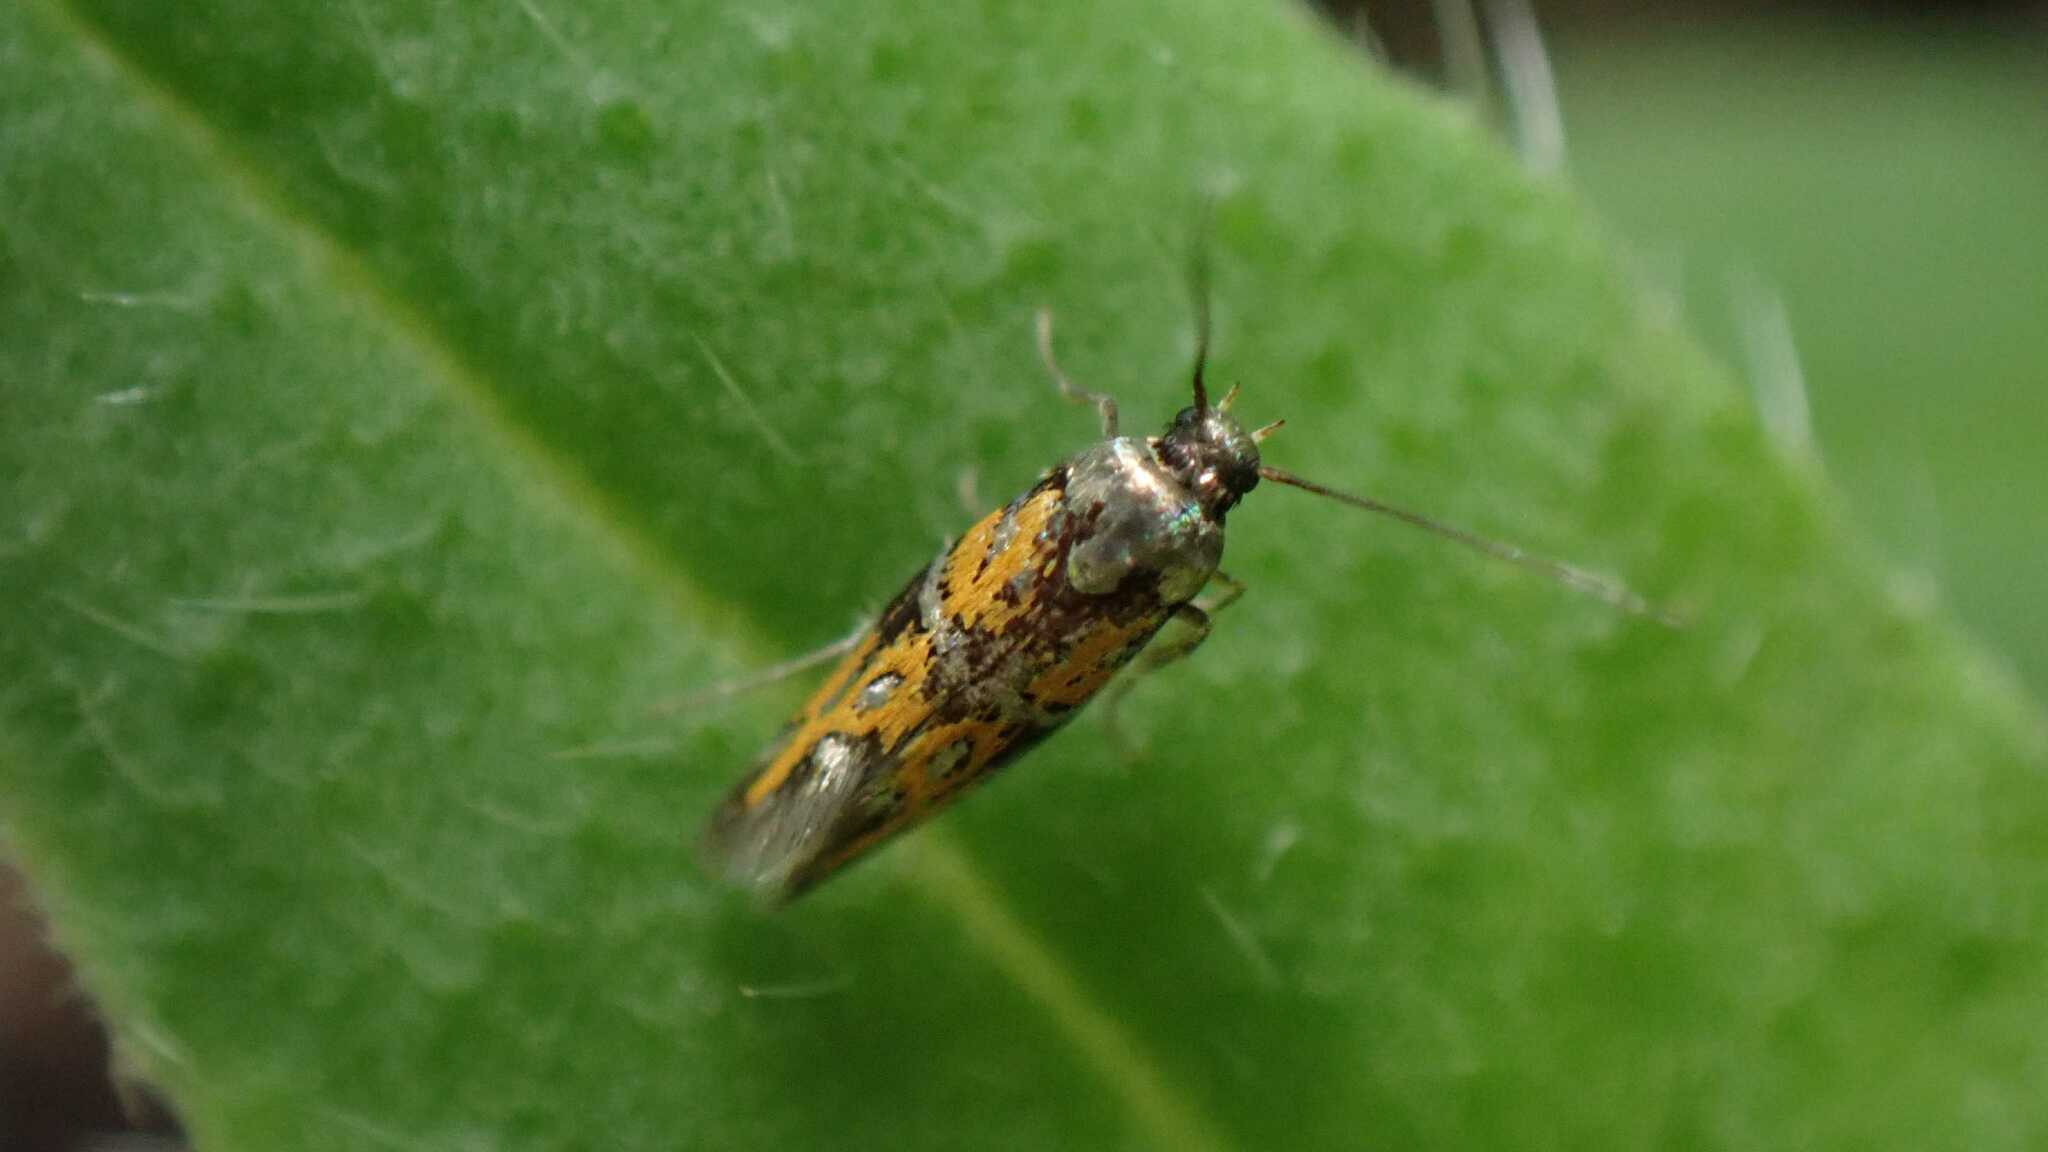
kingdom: Animalia
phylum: Arthropoda
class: Insecta
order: Lepidoptera
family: Gelechiidae
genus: Chrysoesthia
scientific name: Chrysoesthia drurella
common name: Flame neb
